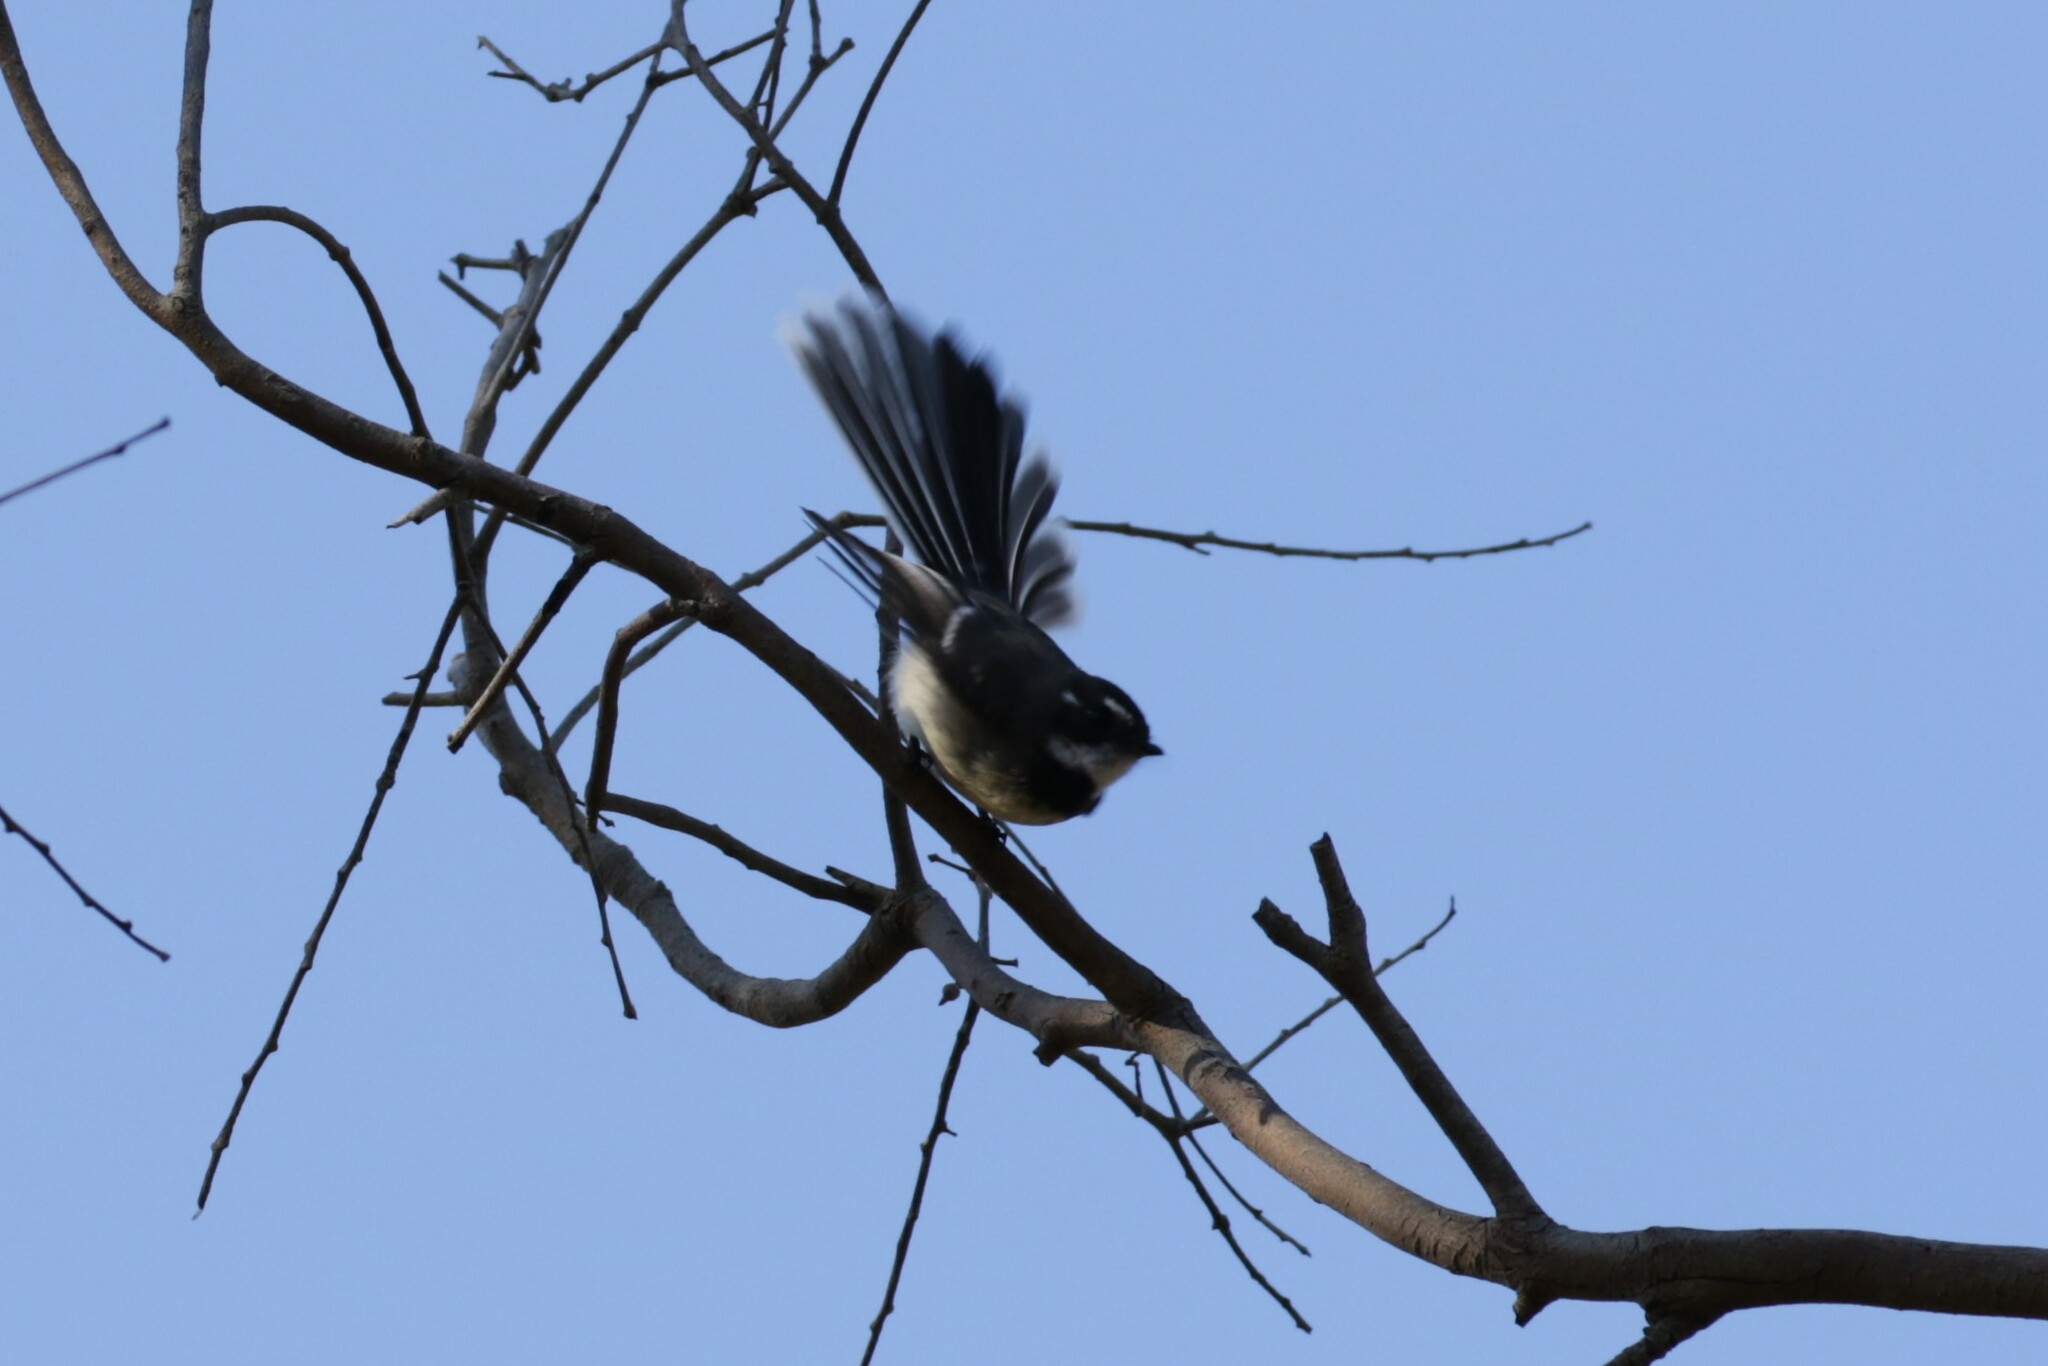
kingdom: Animalia
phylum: Chordata
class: Aves
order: Passeriformes
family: Rhipiduridae
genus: Rhipidura
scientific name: Rhipidura albiscapa
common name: Grey fantail
